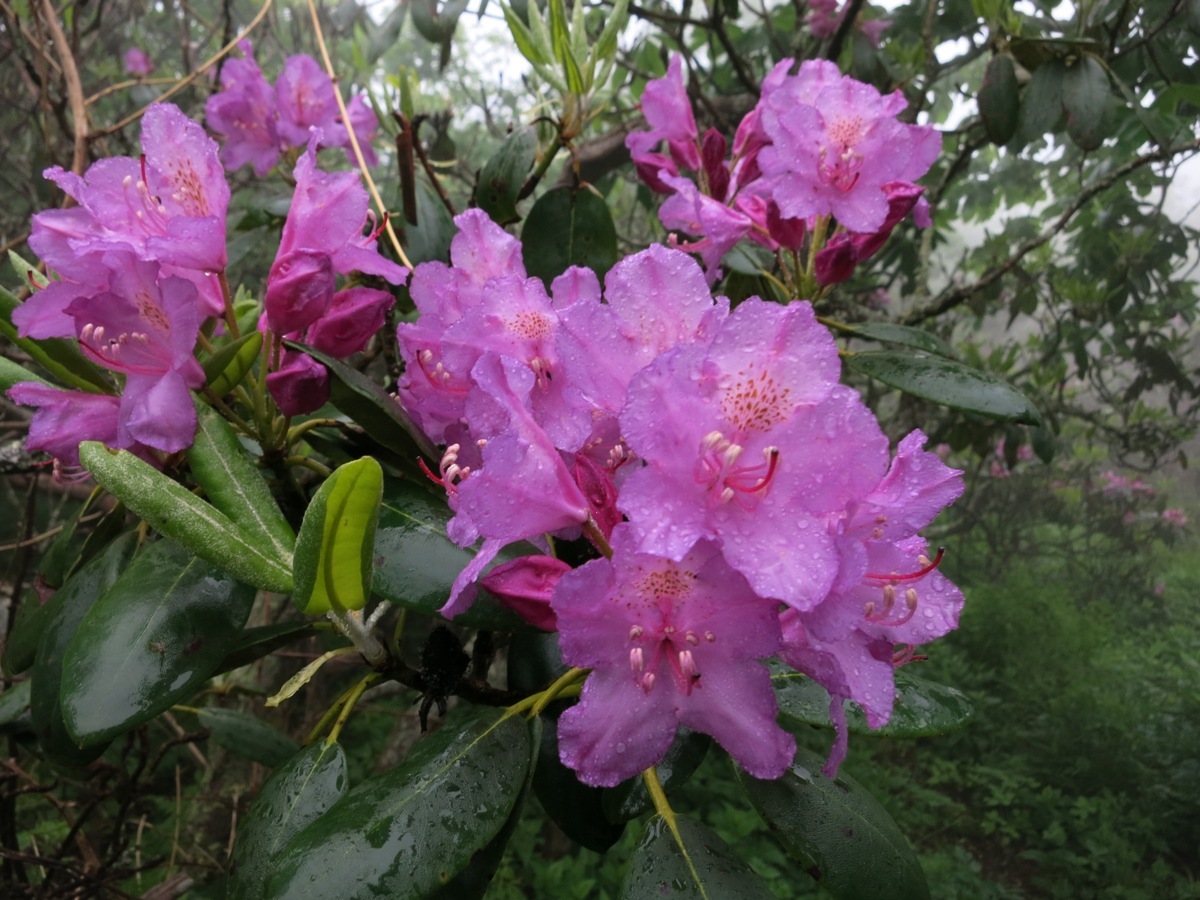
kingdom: Plantae
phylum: Tracheophyta
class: Magnoliopsida
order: Ericales
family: Ericaceae
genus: Rhododendron
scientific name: Rhododendron catawbiense
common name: Catawba rhododendron
